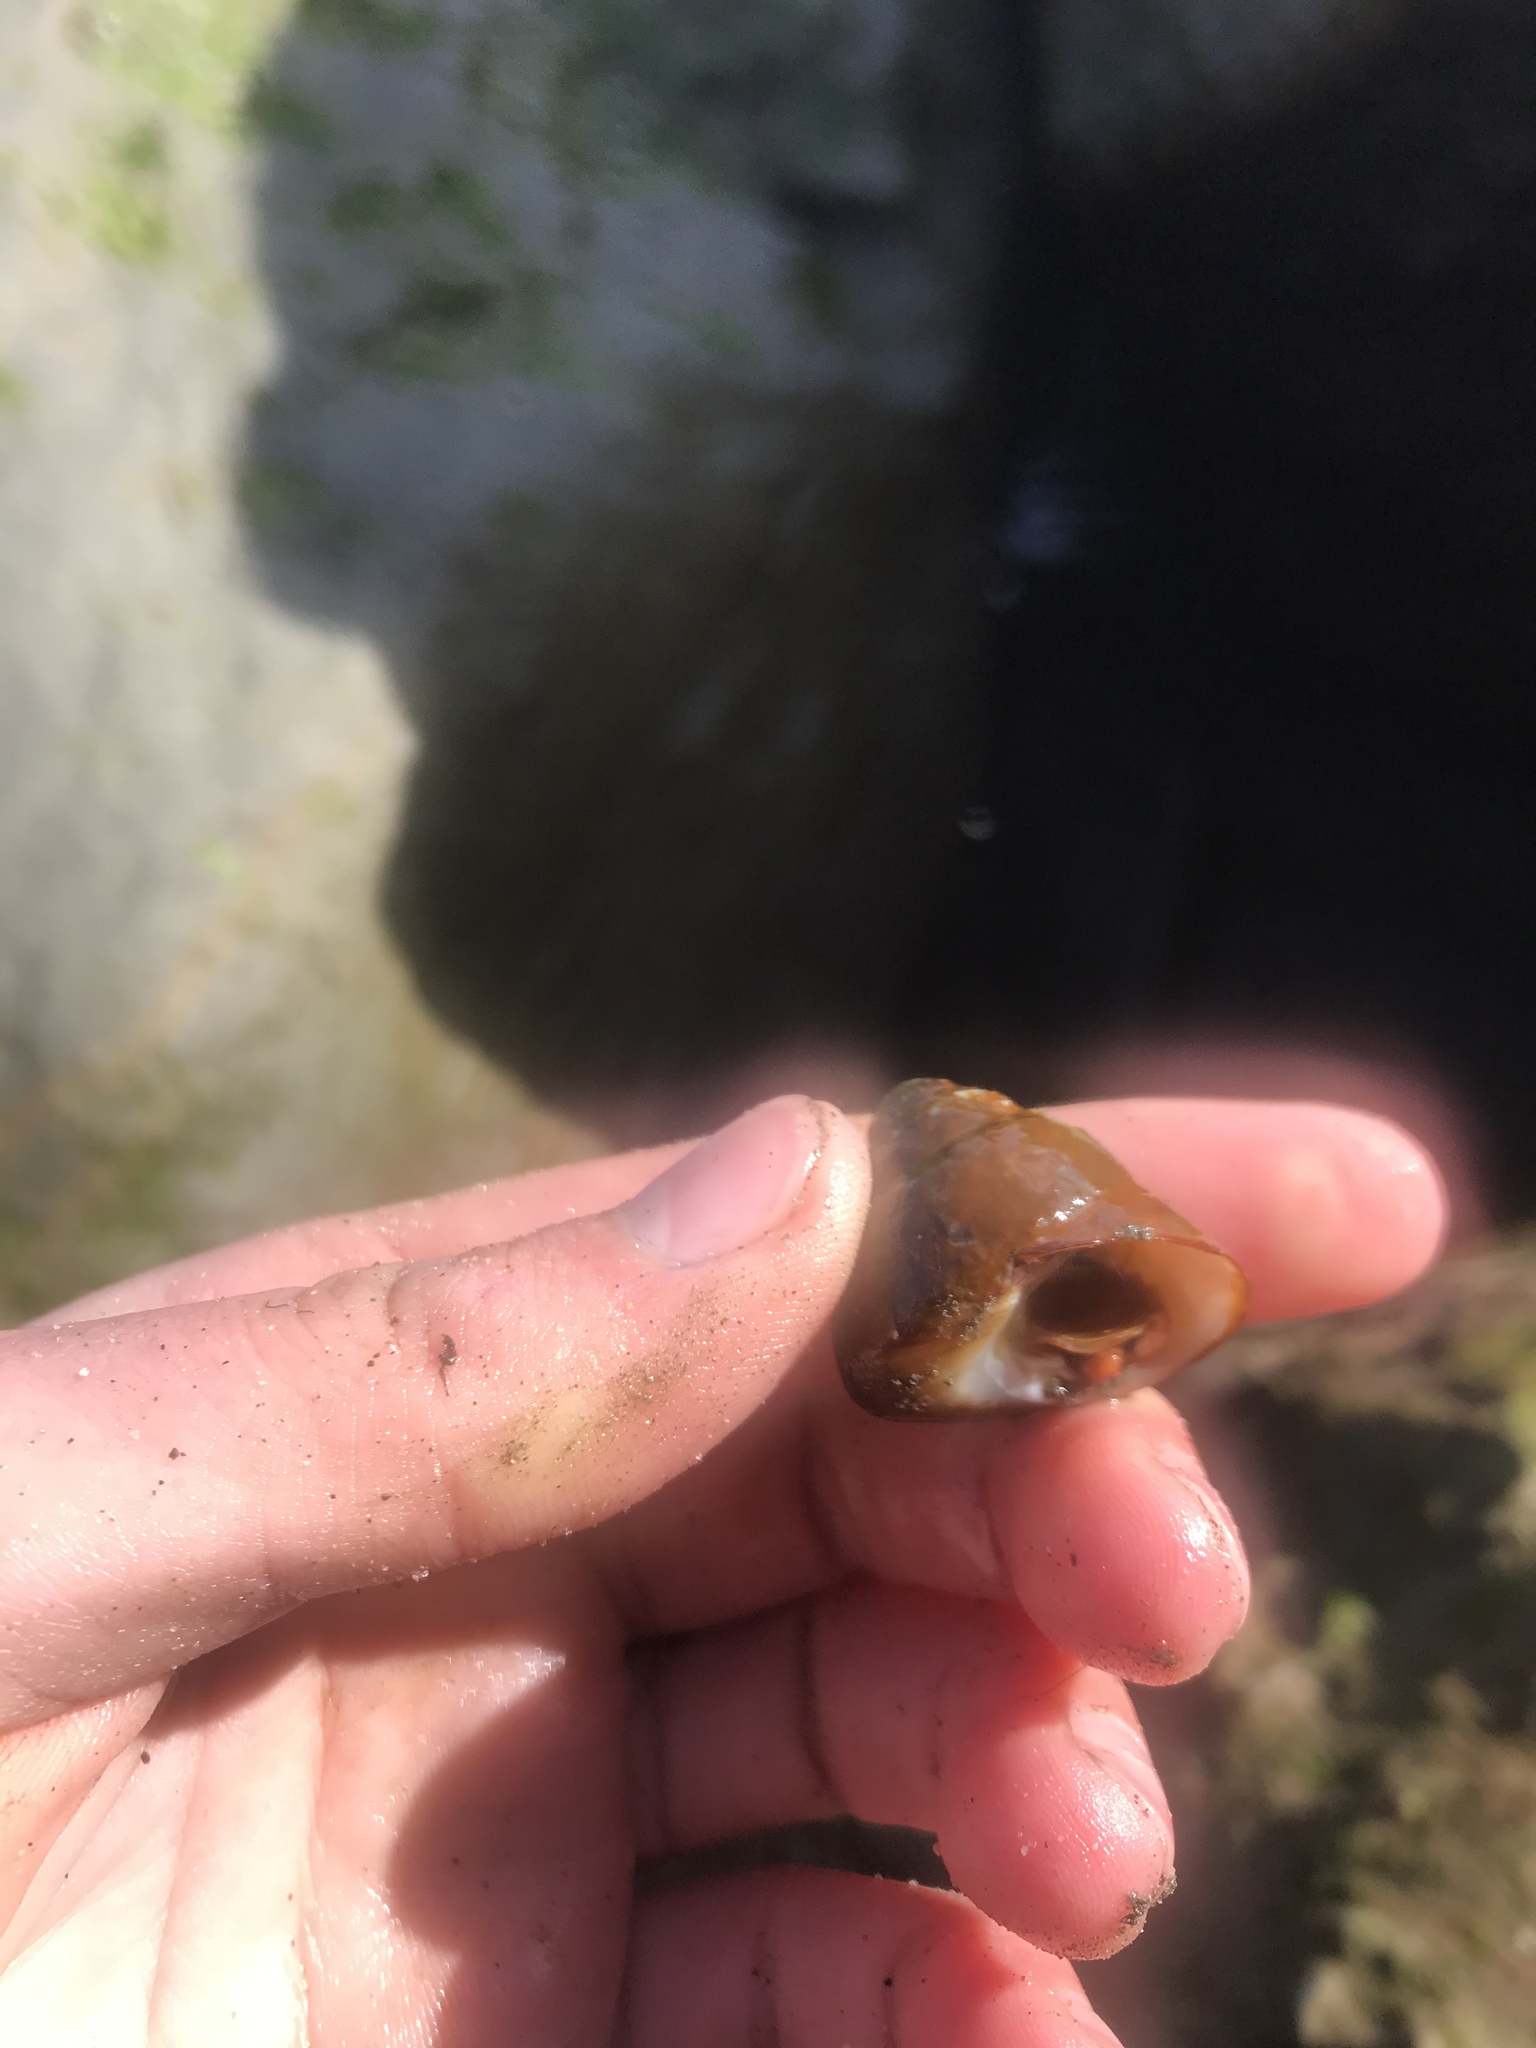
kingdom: Animalia
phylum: Mollusca
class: Gastropoda
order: Trochida
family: Tegulidae
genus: Tegula
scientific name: Tegula brunnea
